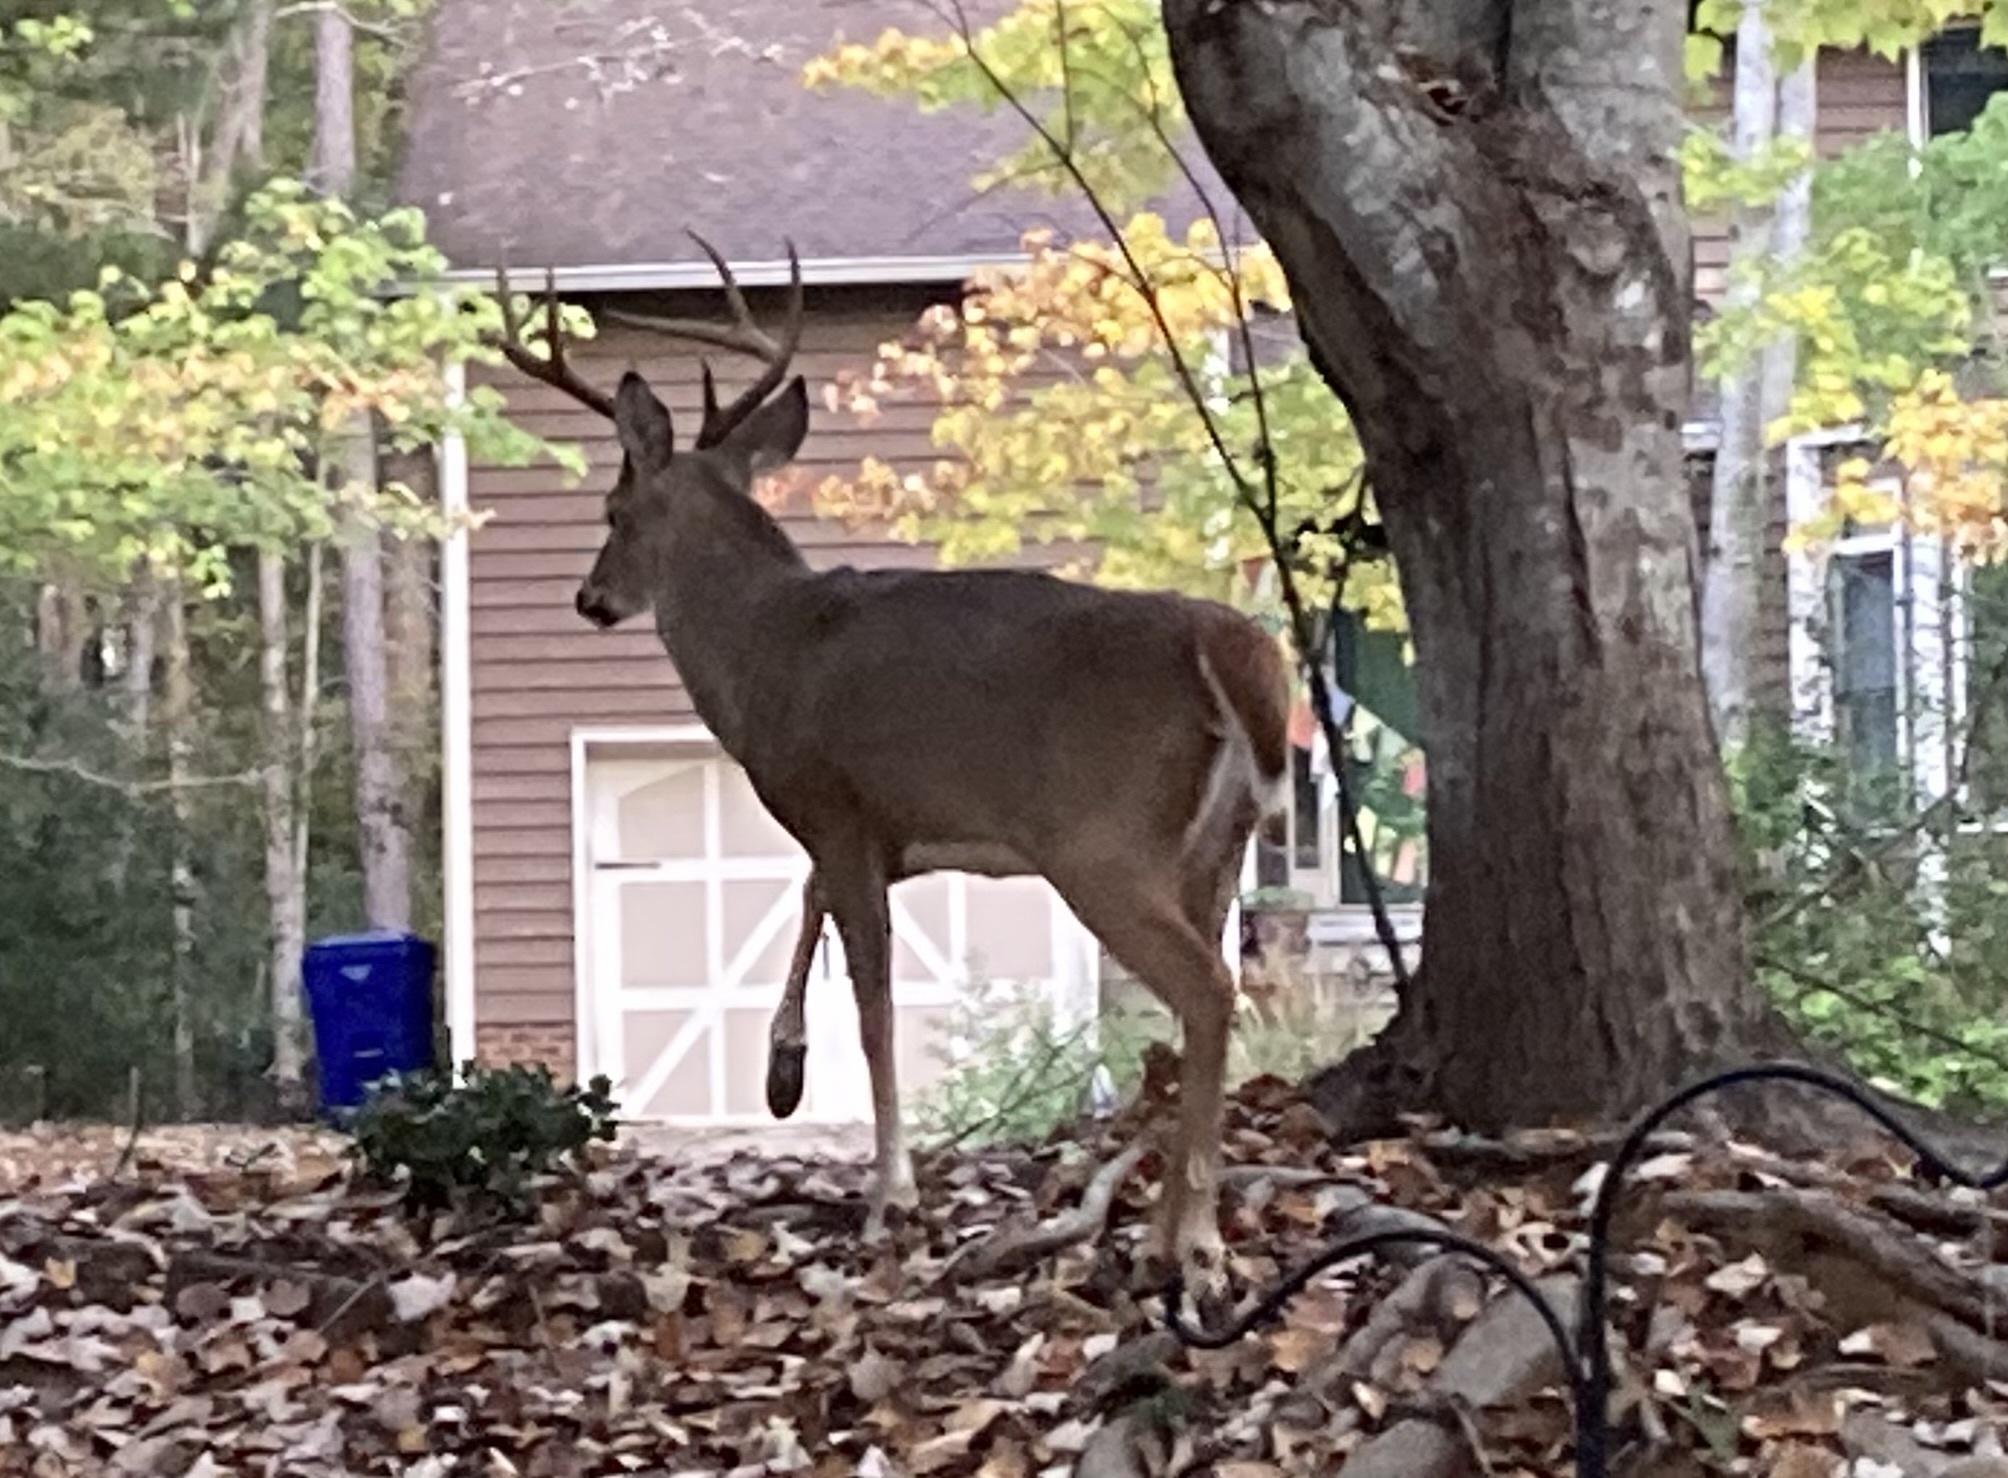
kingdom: Animalia
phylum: Chordata
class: Mammalia
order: Artiodactyla
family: Cervidae
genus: Odocoileus
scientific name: Odocoileus virginianus
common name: White-tailed deer
